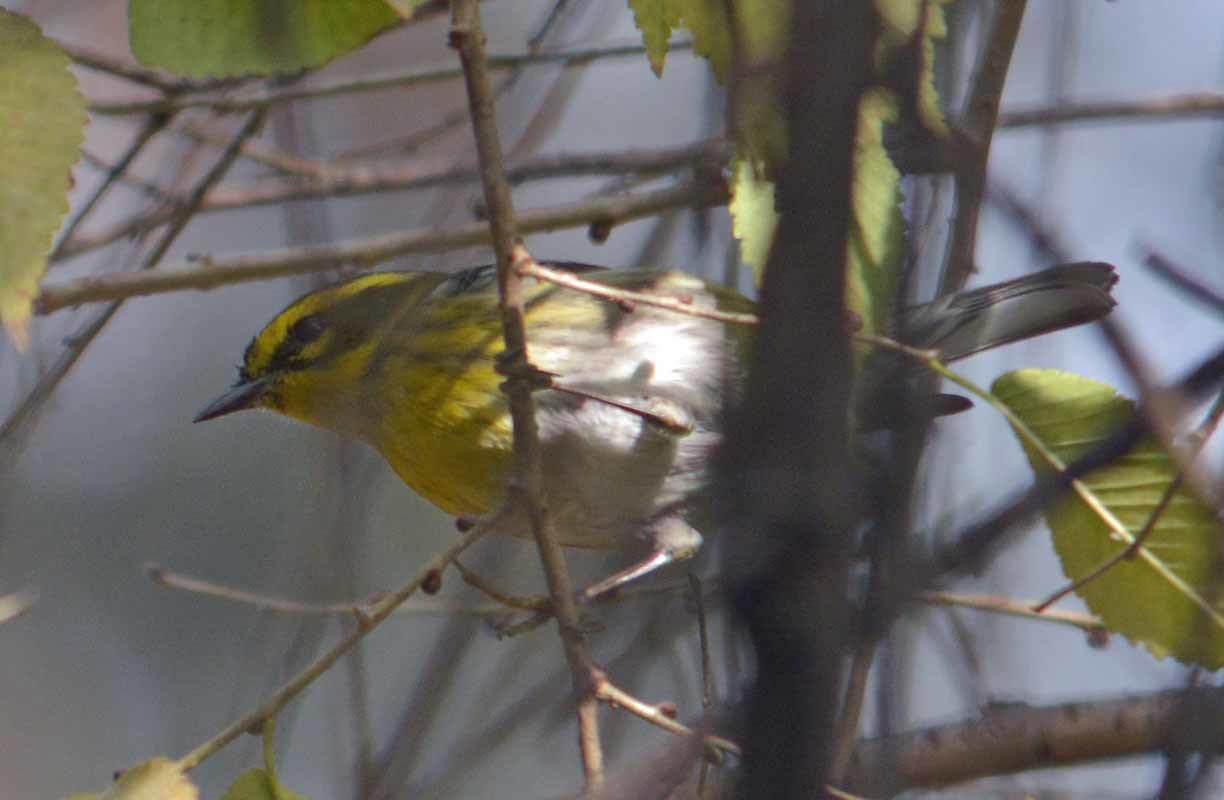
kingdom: Animalia
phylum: Chordata
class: Aves
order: Passeriformes
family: Parulidae
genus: Setophaga
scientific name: Setophaga townsendi
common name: Townsend's warbler
